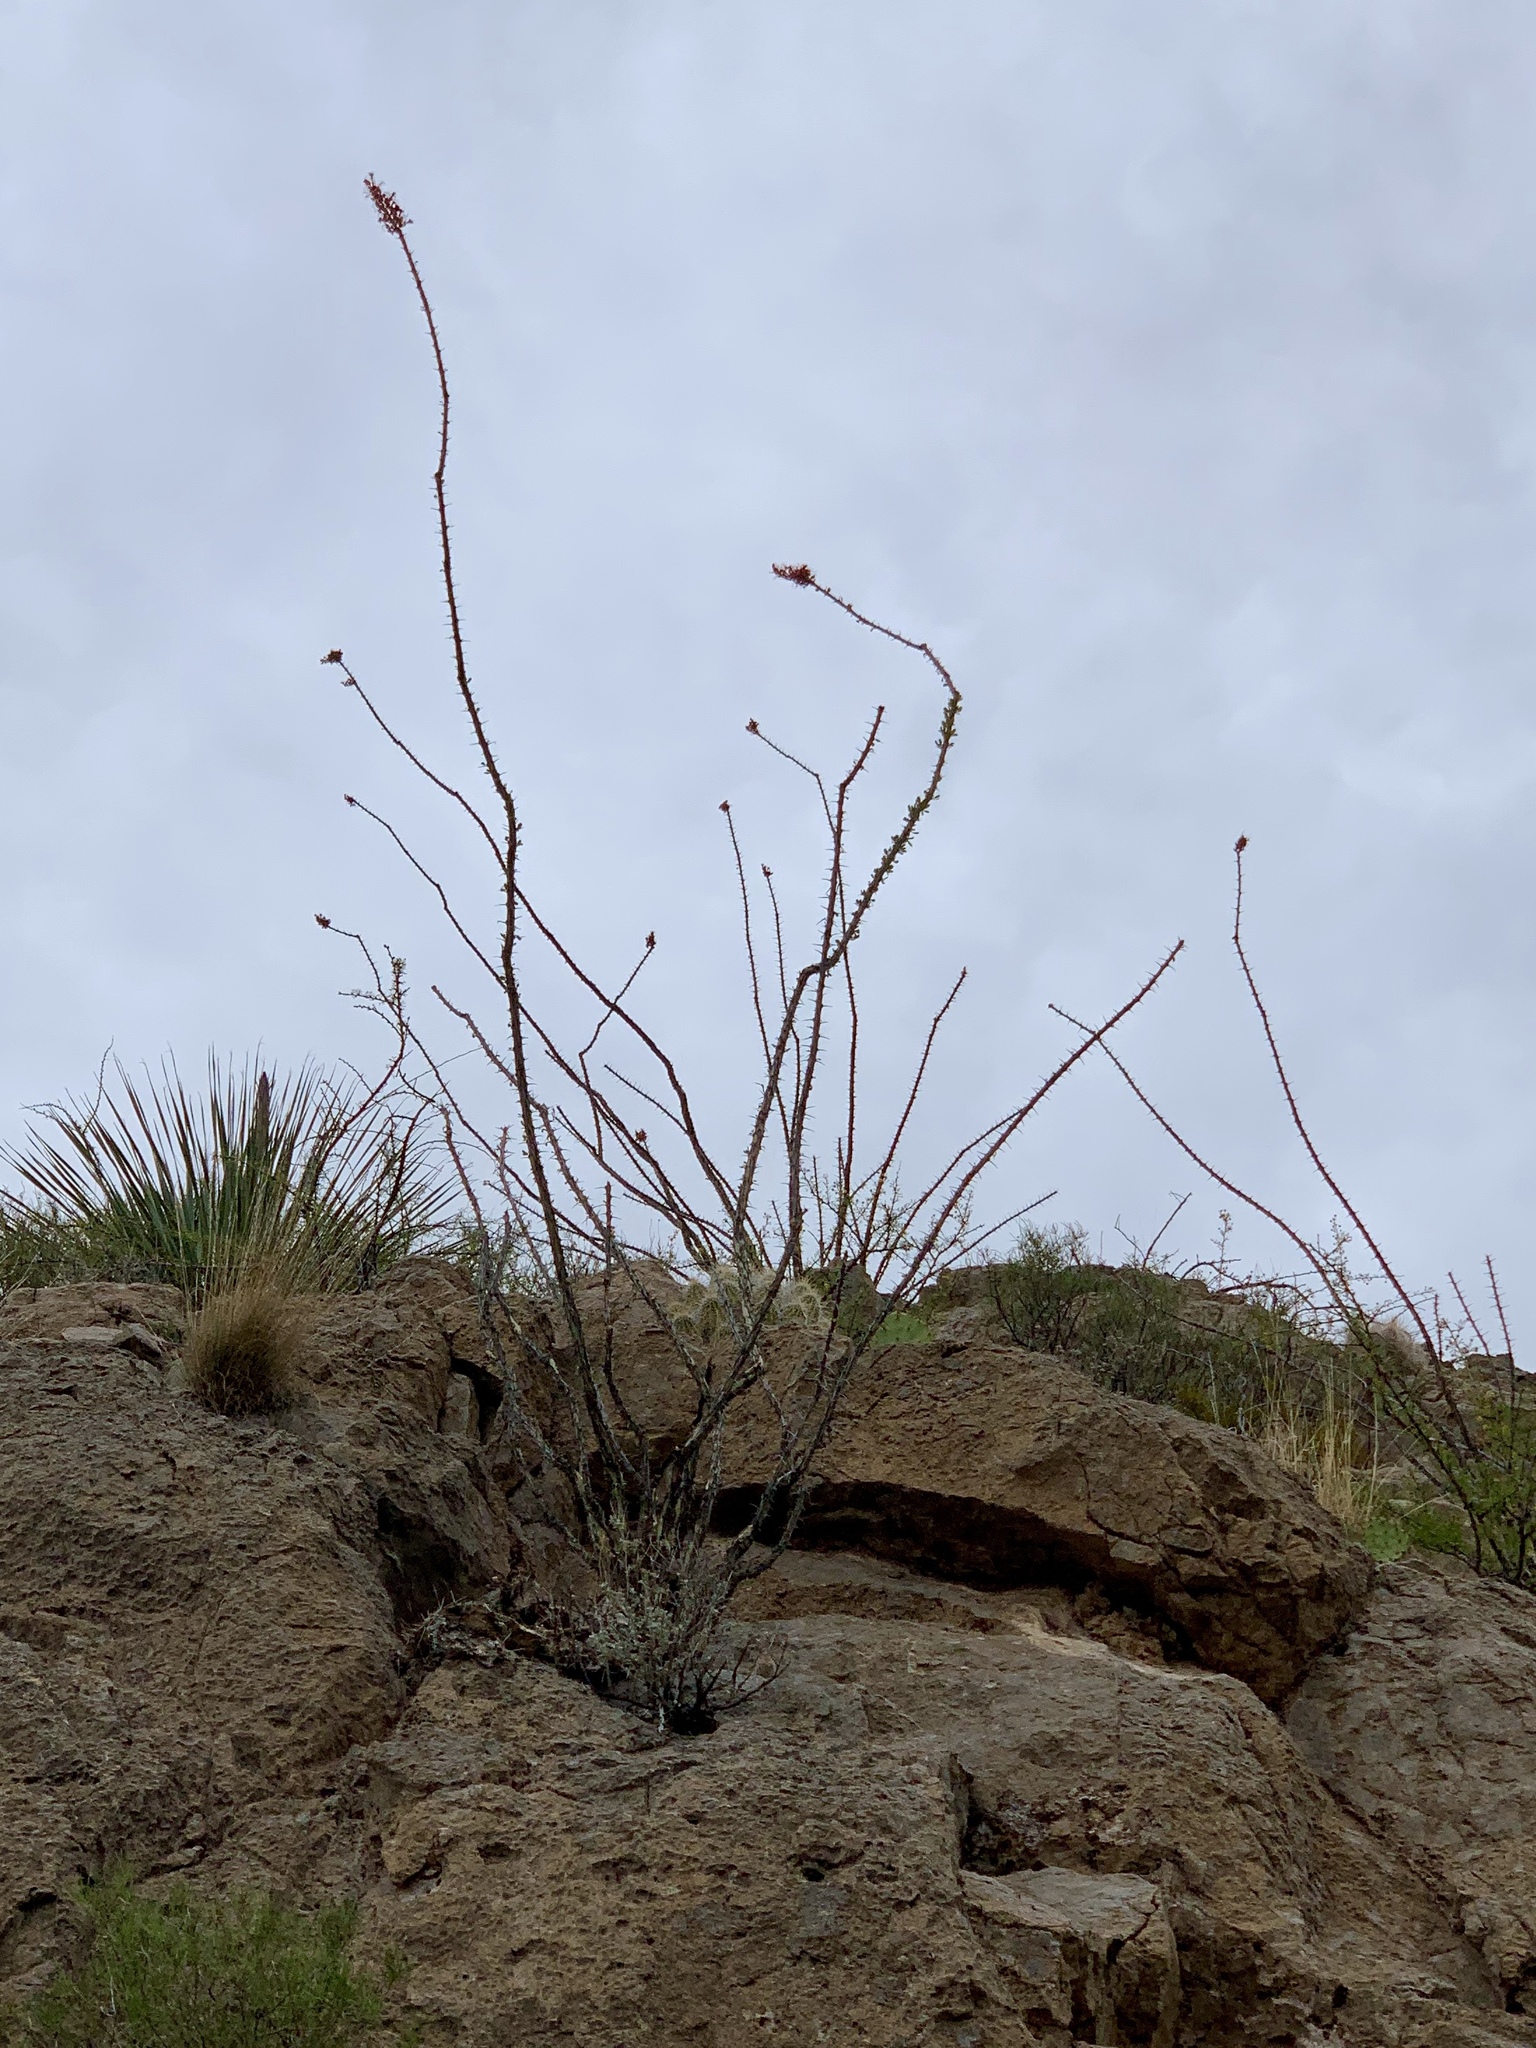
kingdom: Plantae
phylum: Tracheophyta
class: Magnoliopsida
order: Ericales
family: Fouquieriaceae
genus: Fouquieria
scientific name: Fouquieria splendens
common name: Vine-cactus
